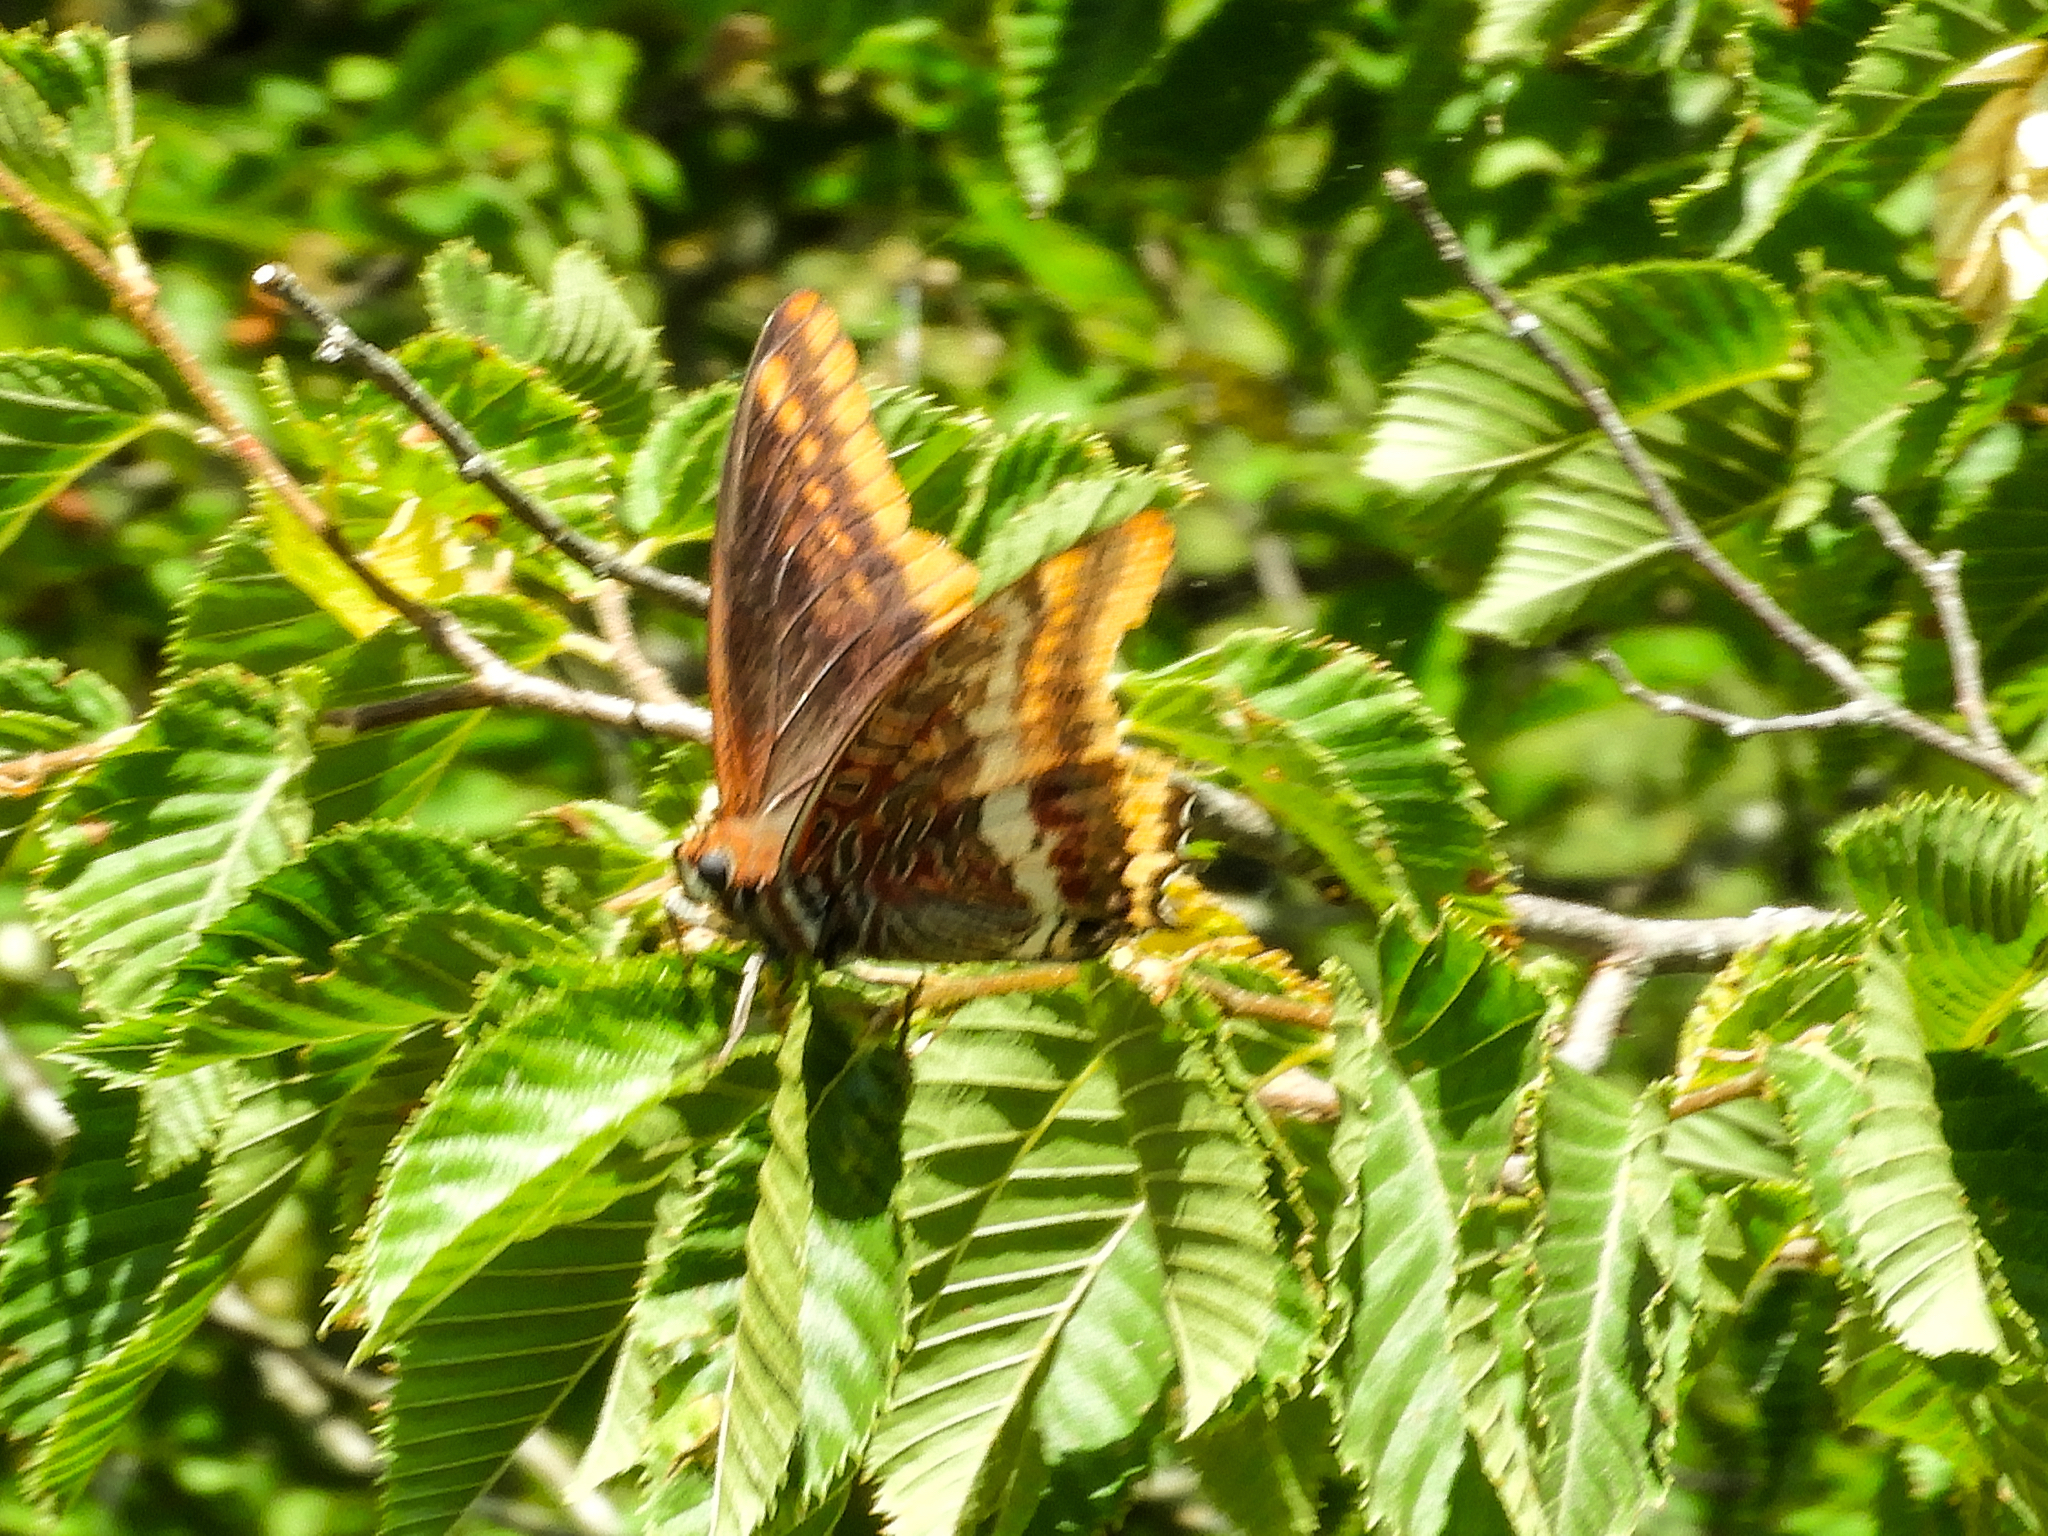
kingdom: Animalia
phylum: Arthropoda
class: Insecta
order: Lepidoptera
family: Nymphalidae
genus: Charaxes
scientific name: Charaxes jasius
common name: Two tailed pasha
